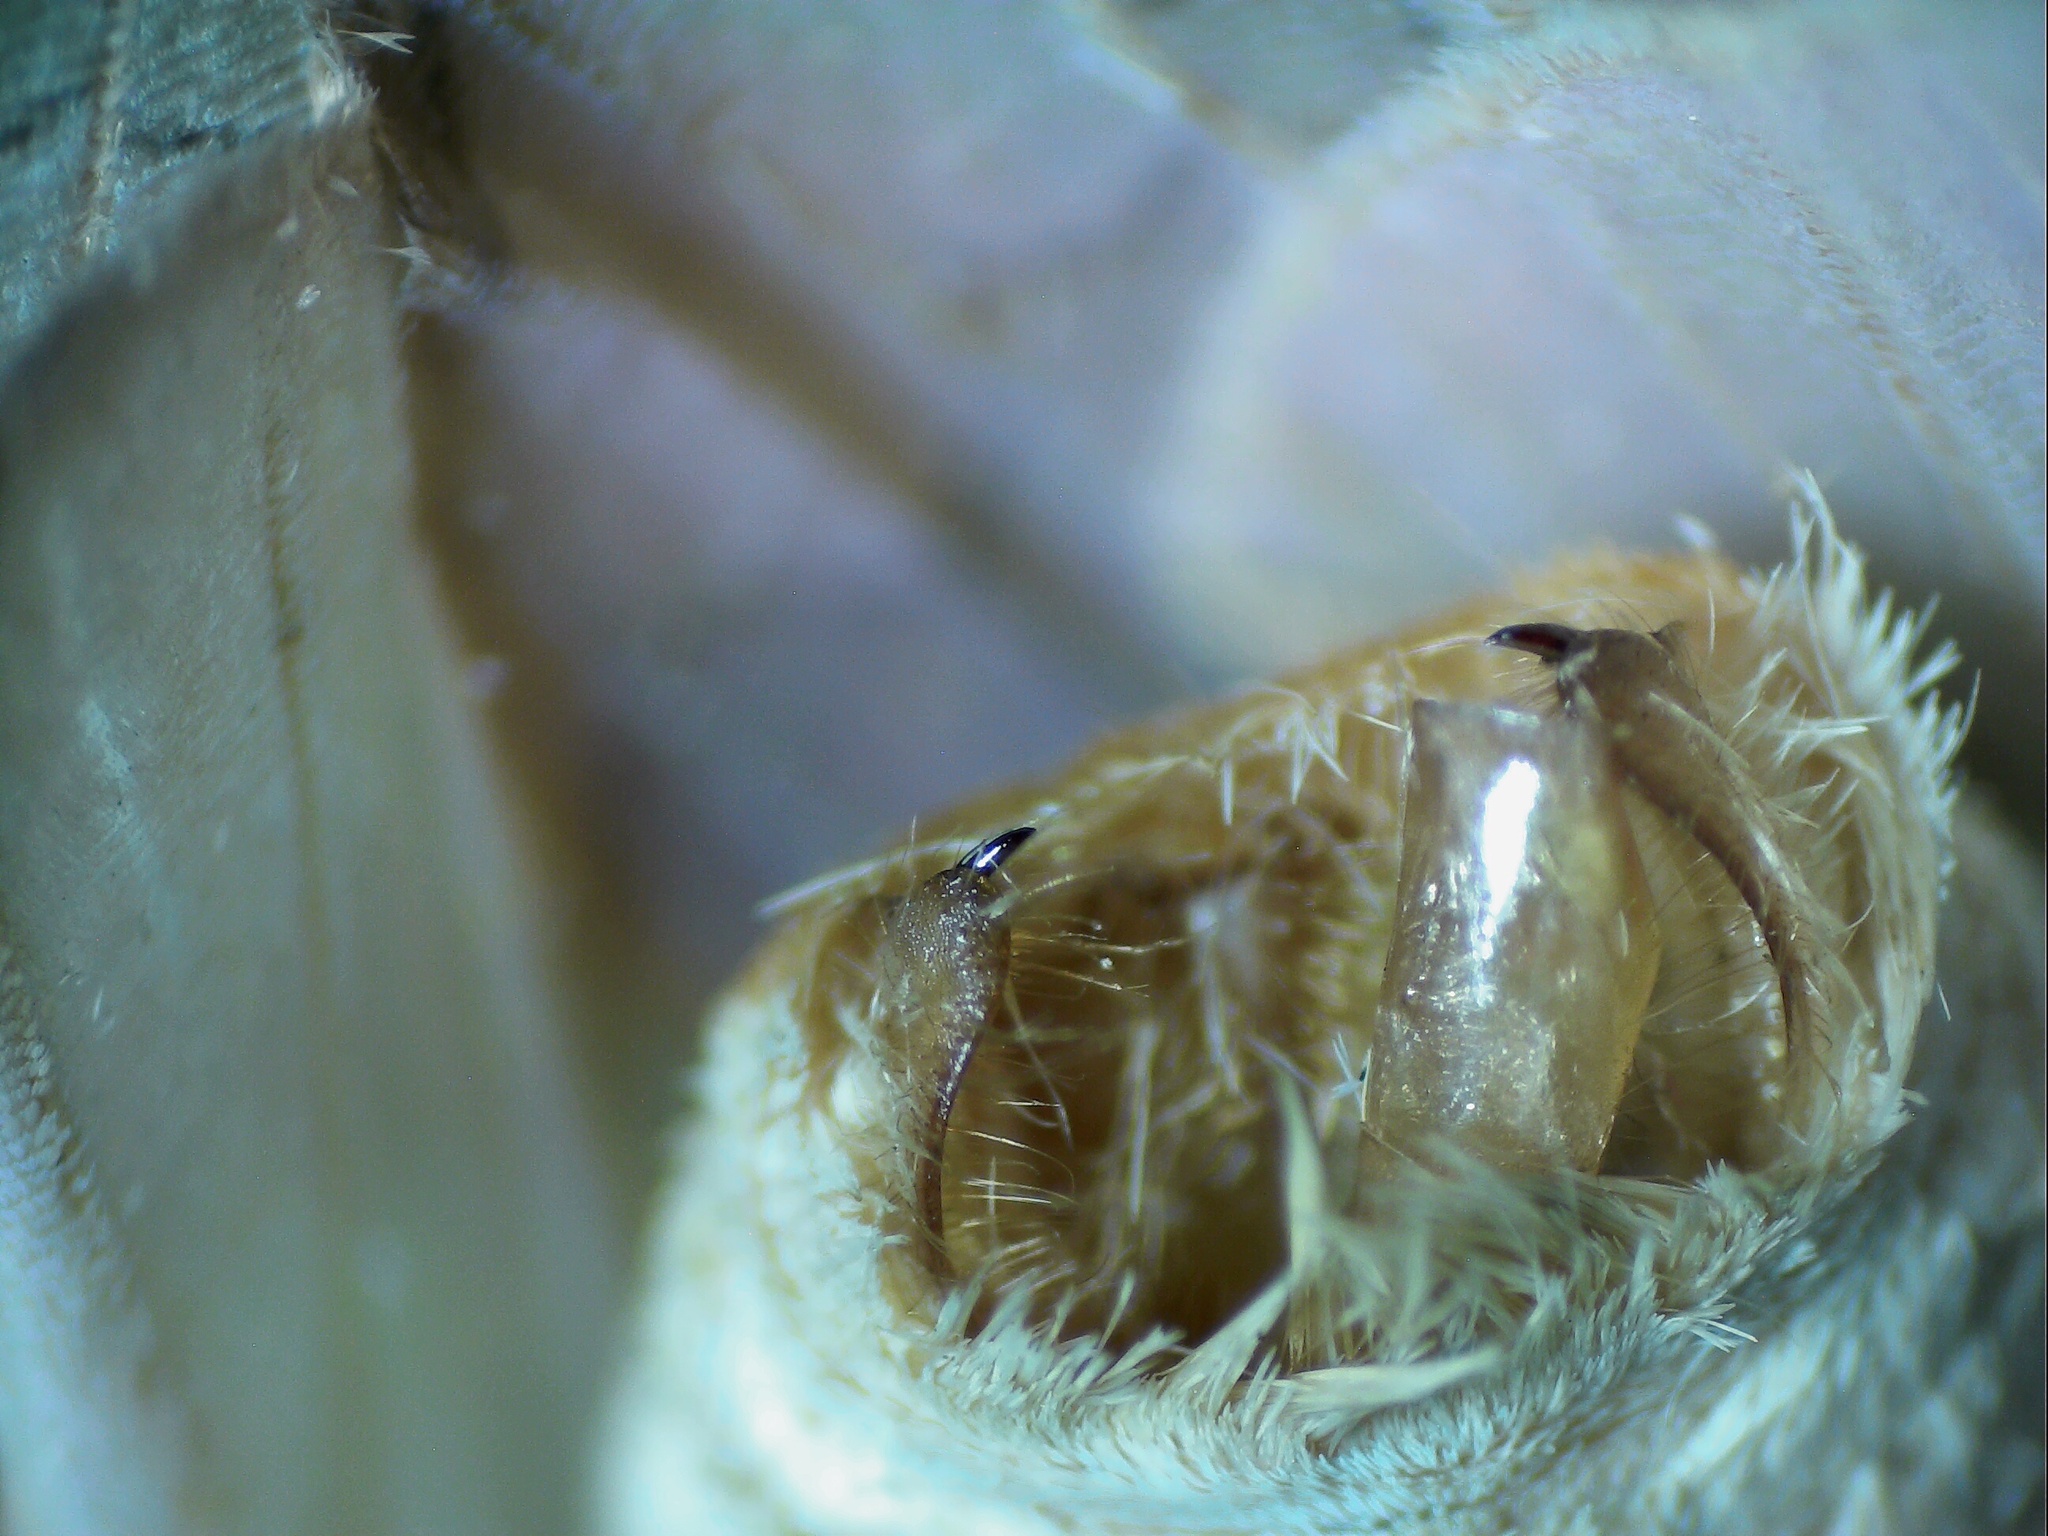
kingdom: Animalia
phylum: Arthropoda
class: Insecta
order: Lepidoptera
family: Erebidae
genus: Halysidota
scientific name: Halysidota tessellaris
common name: Banded tussock moth
